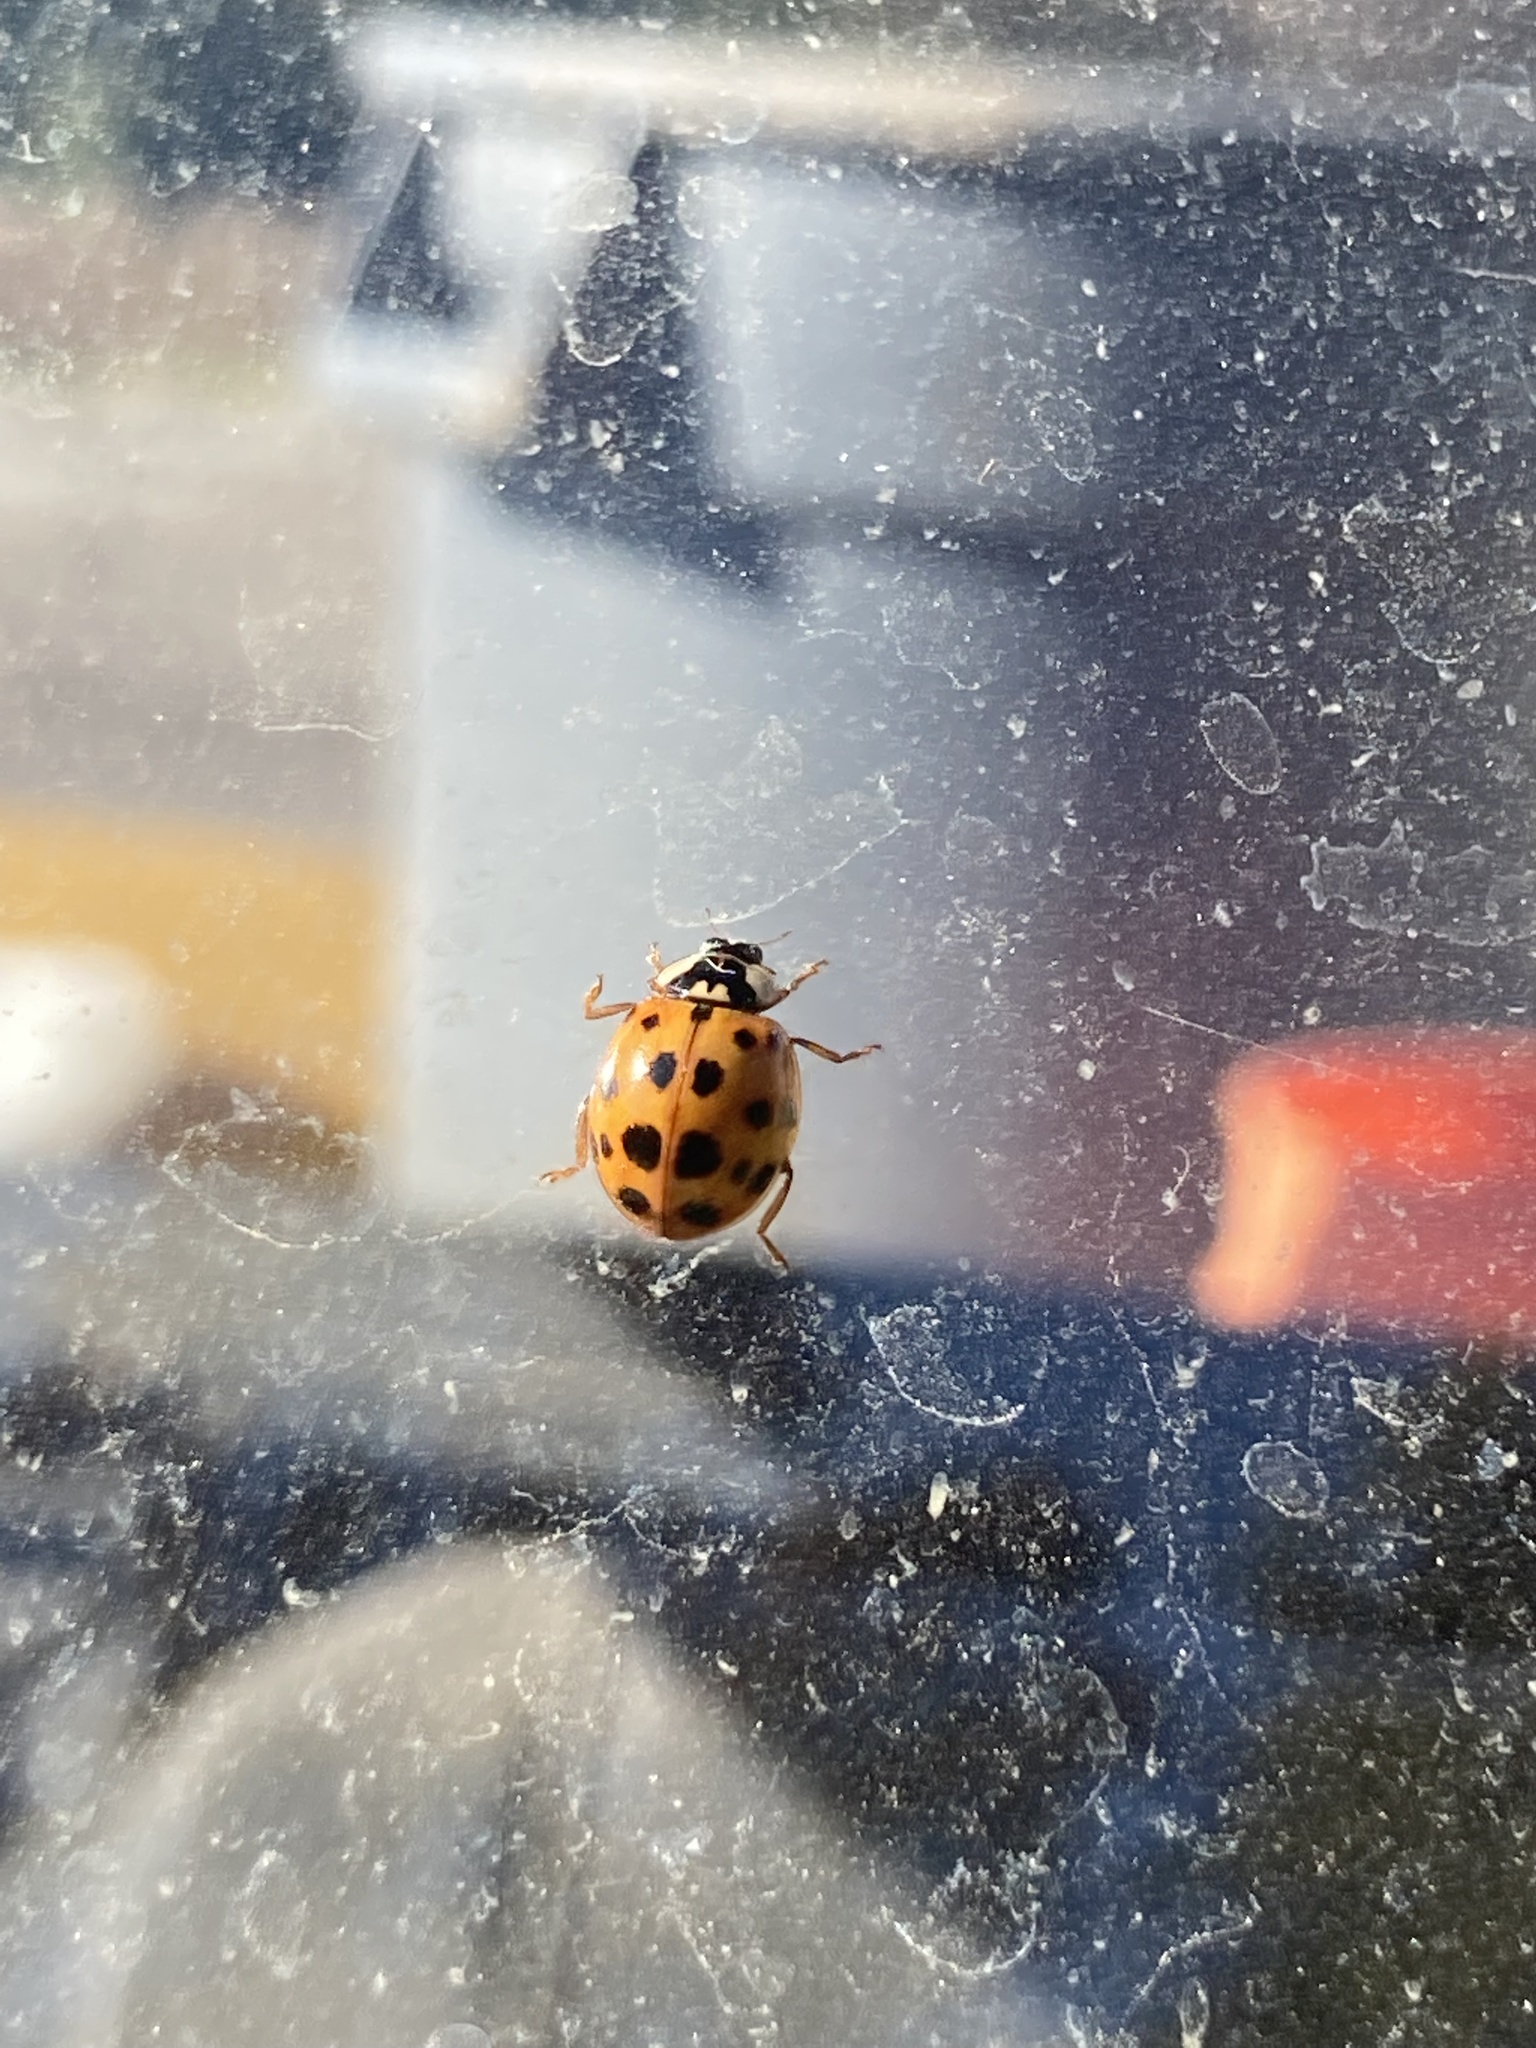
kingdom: Animalia
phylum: Arthropoda
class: Insecta
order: Coleoptera
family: Coccinellidae
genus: Harmonia
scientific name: Harmonia axyridis
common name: Harlequin ladybird
